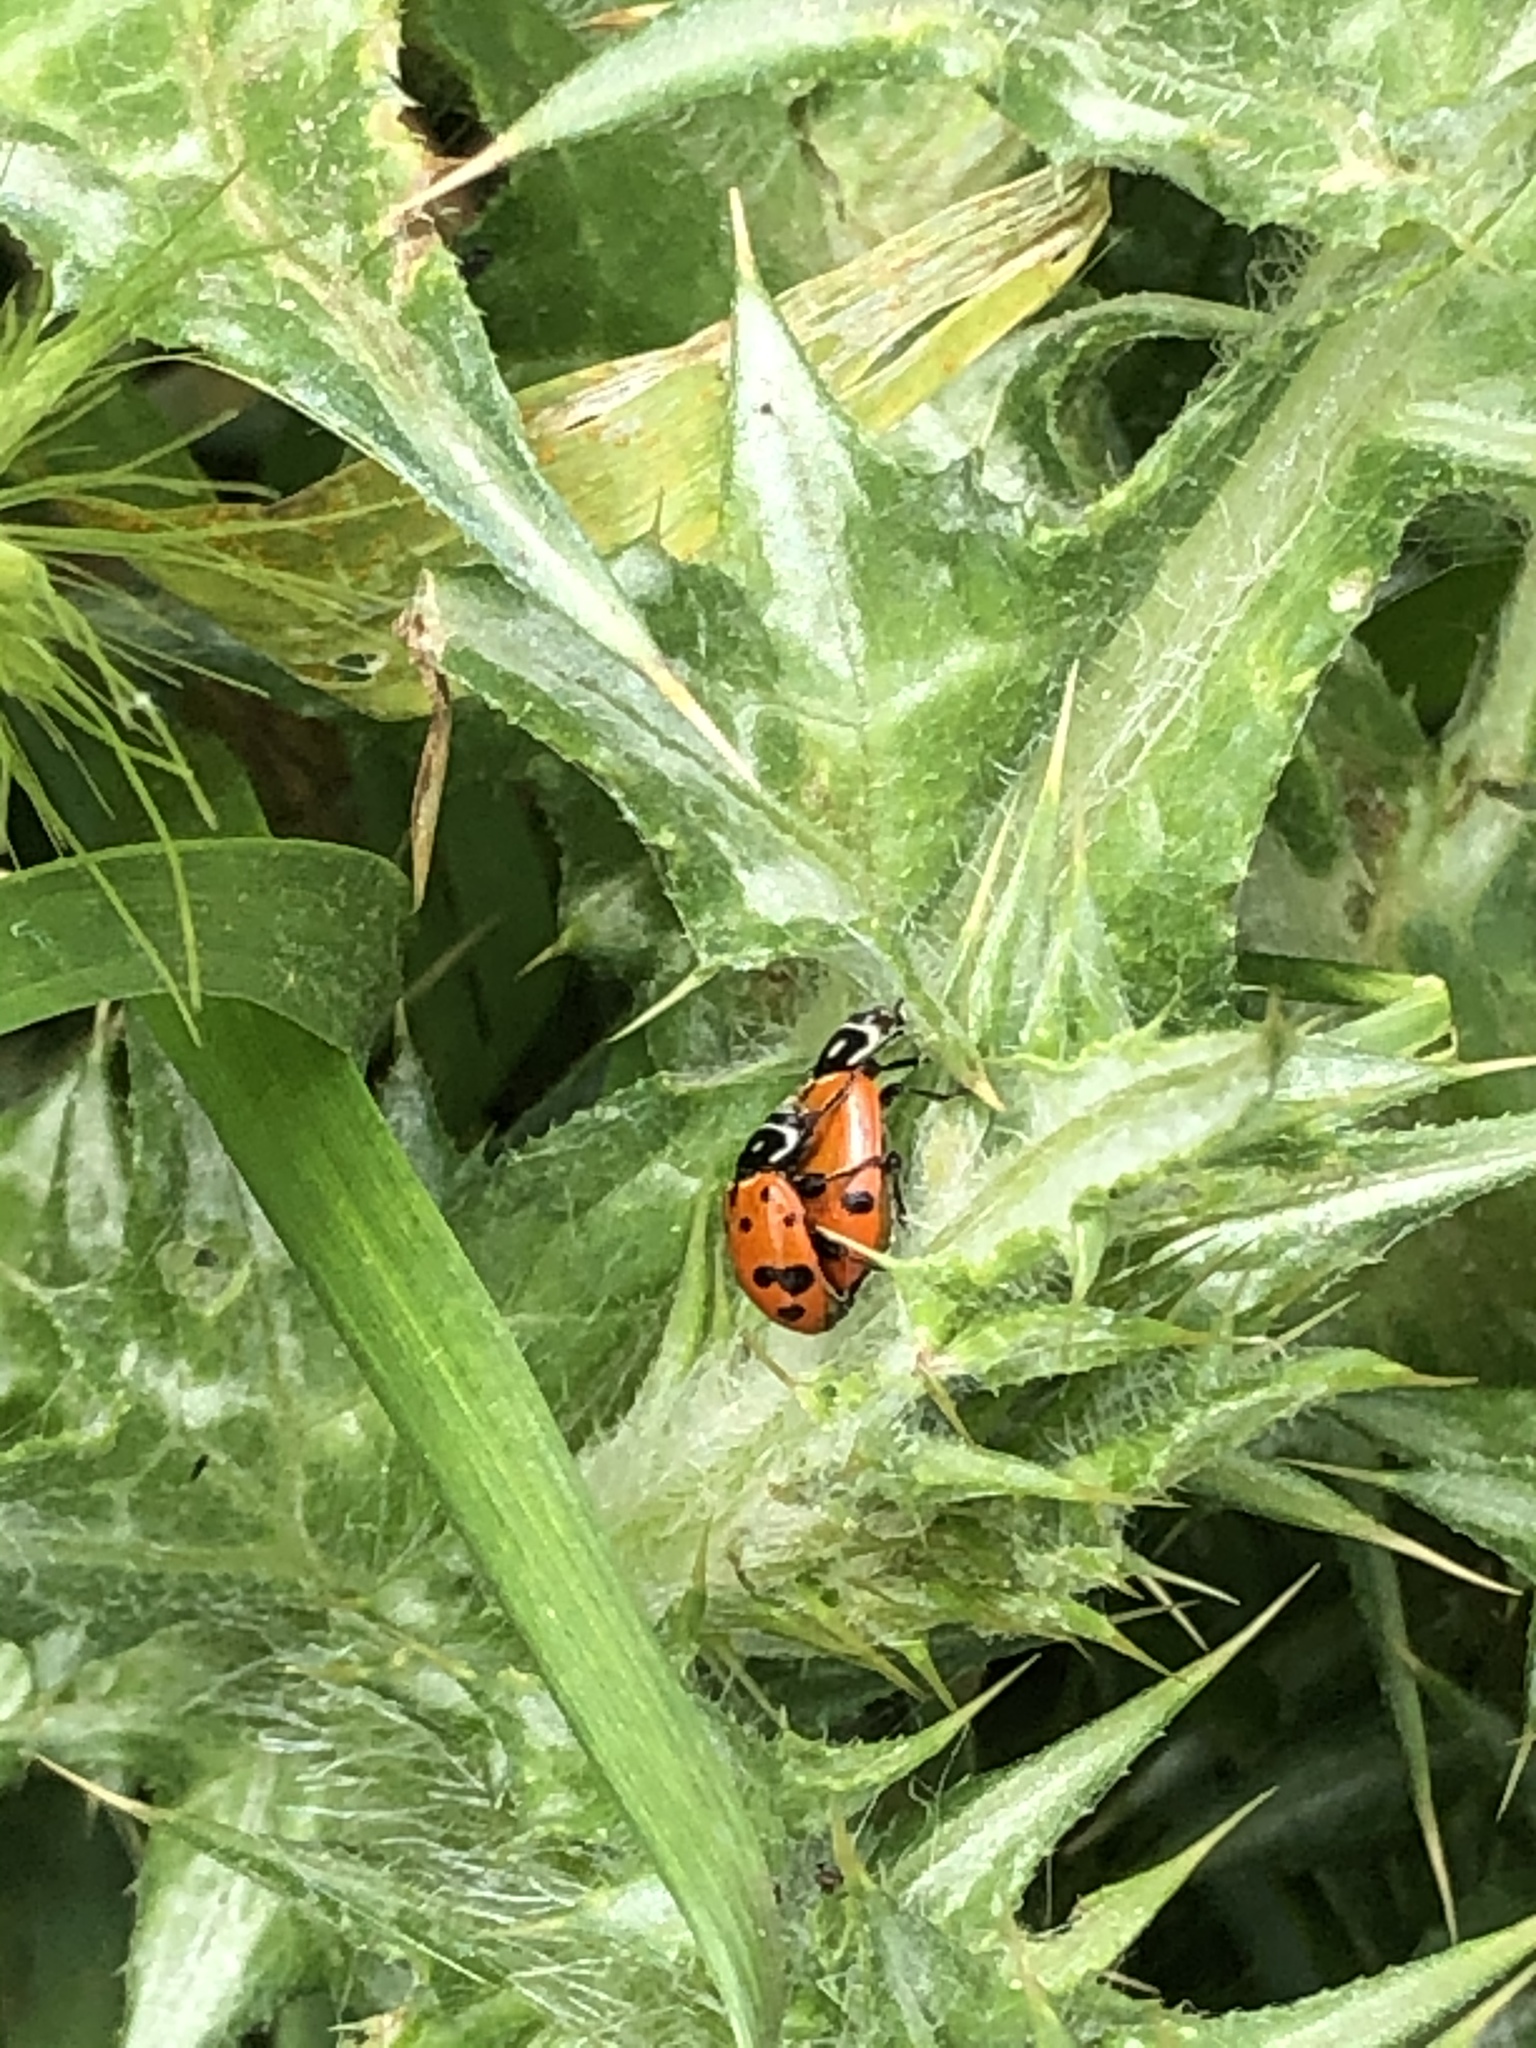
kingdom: Animalia
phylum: Arthropoda
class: Insecta
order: Coleoptera
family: Coccinellidae
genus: Hippodamia
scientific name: Hippodamia convergens
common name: Convergent lady beetle
